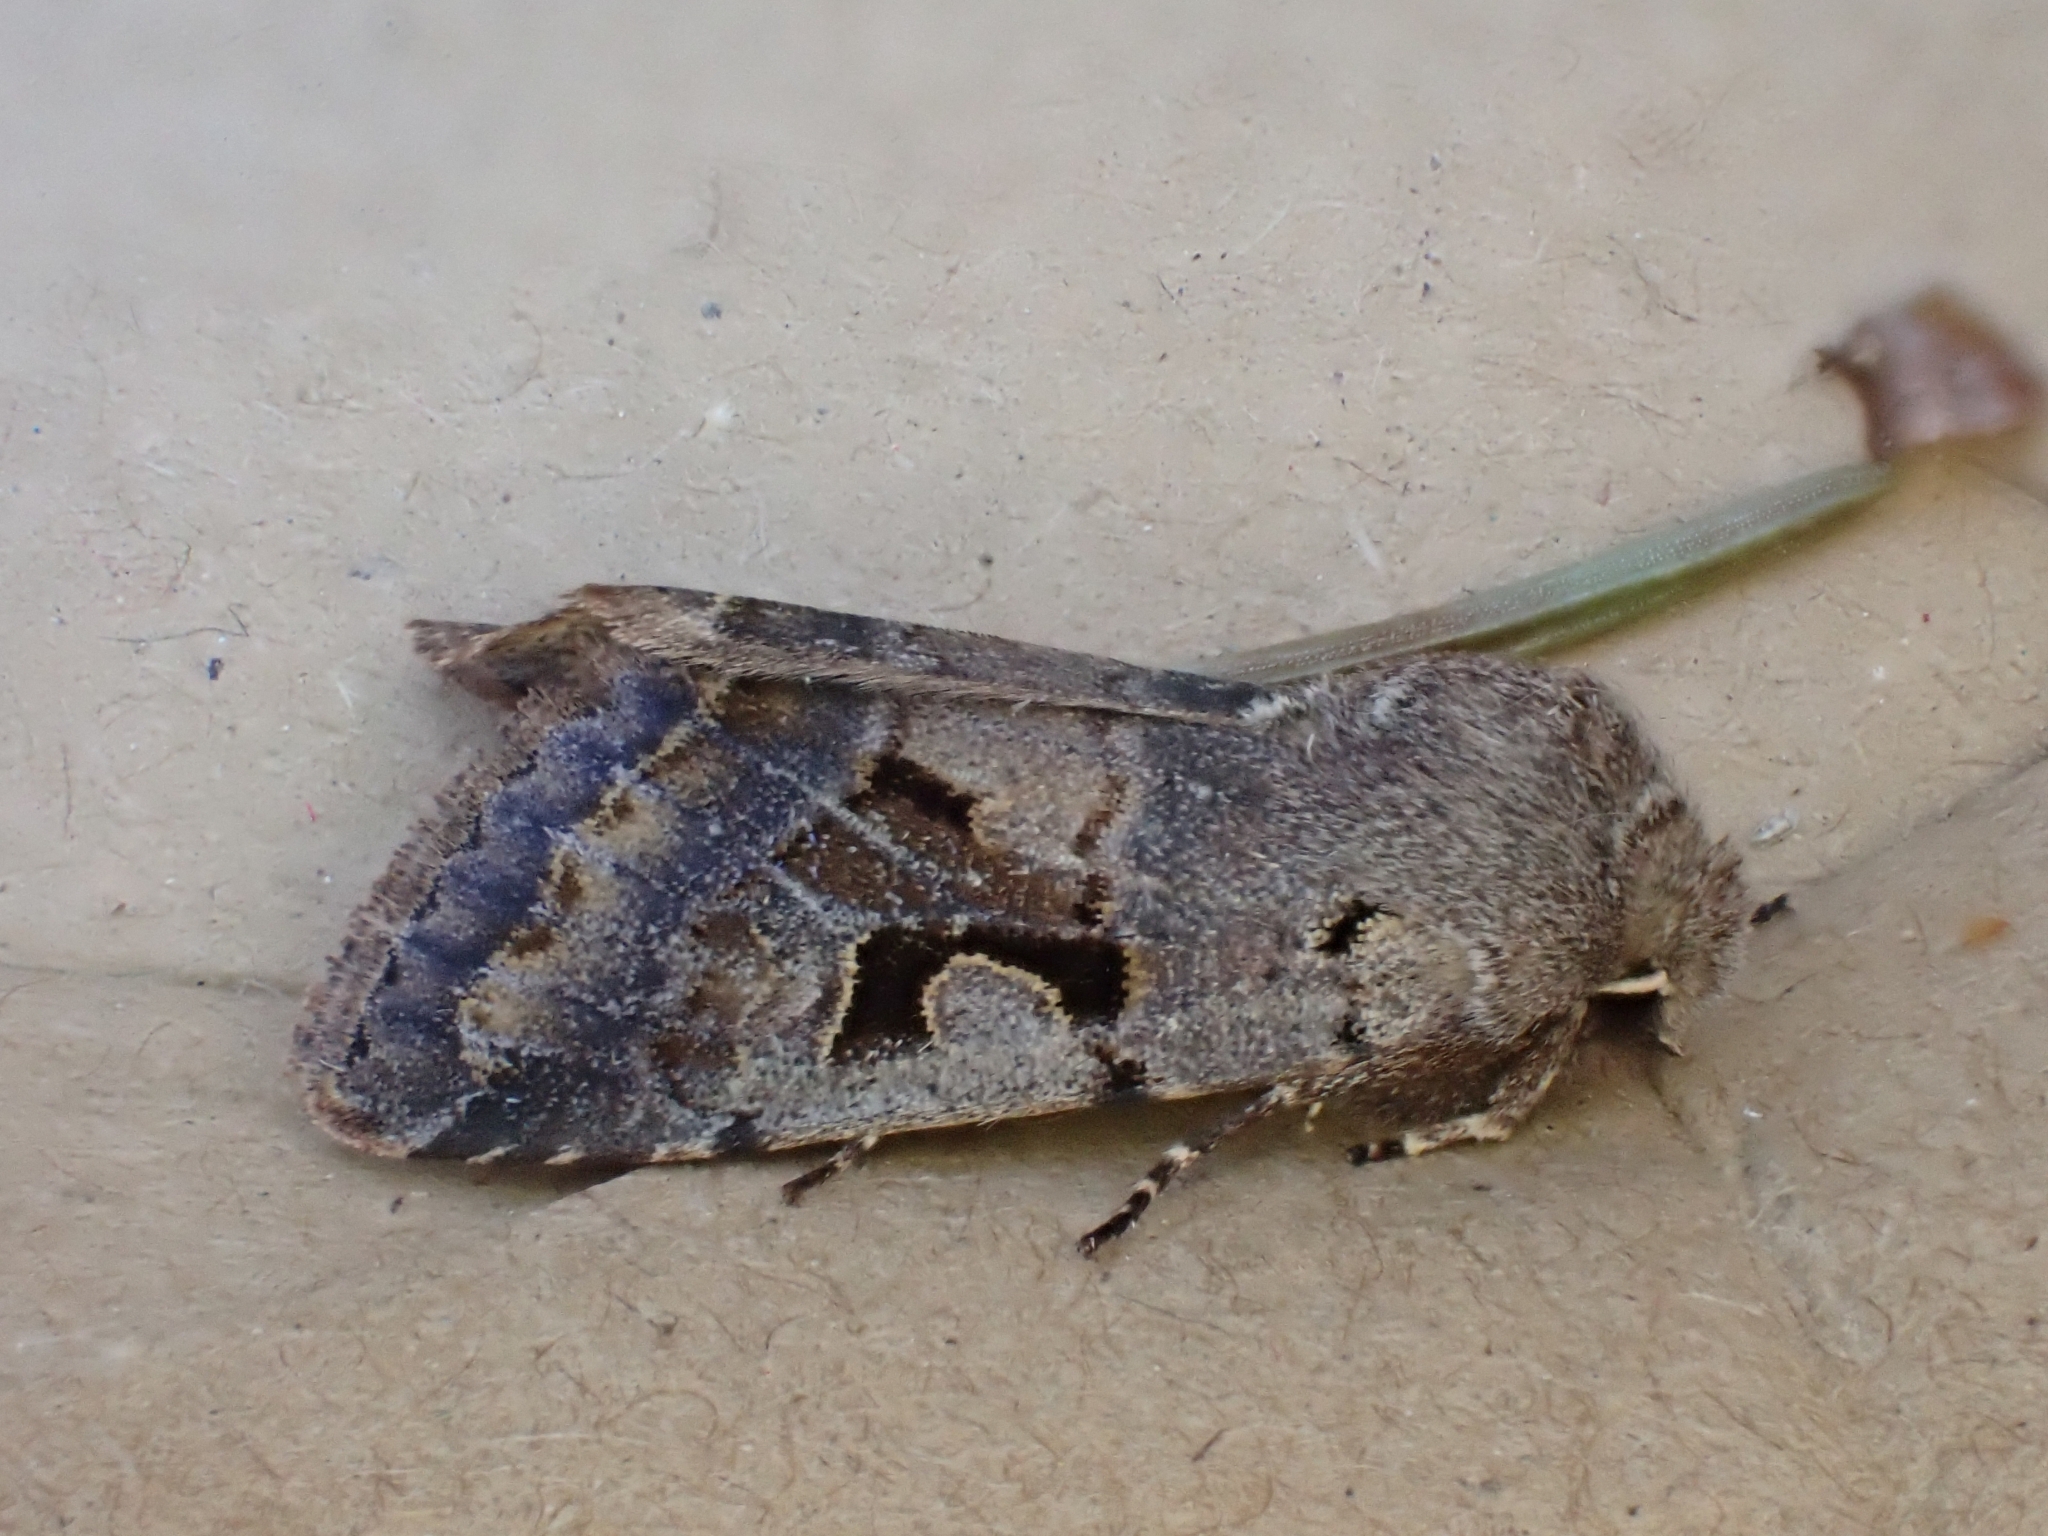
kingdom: Animalia
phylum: Arthropoda
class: Insecta
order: Lepidoptera
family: Noctuidae
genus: Orthosia
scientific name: Orthosia gothica
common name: Hebrew character
